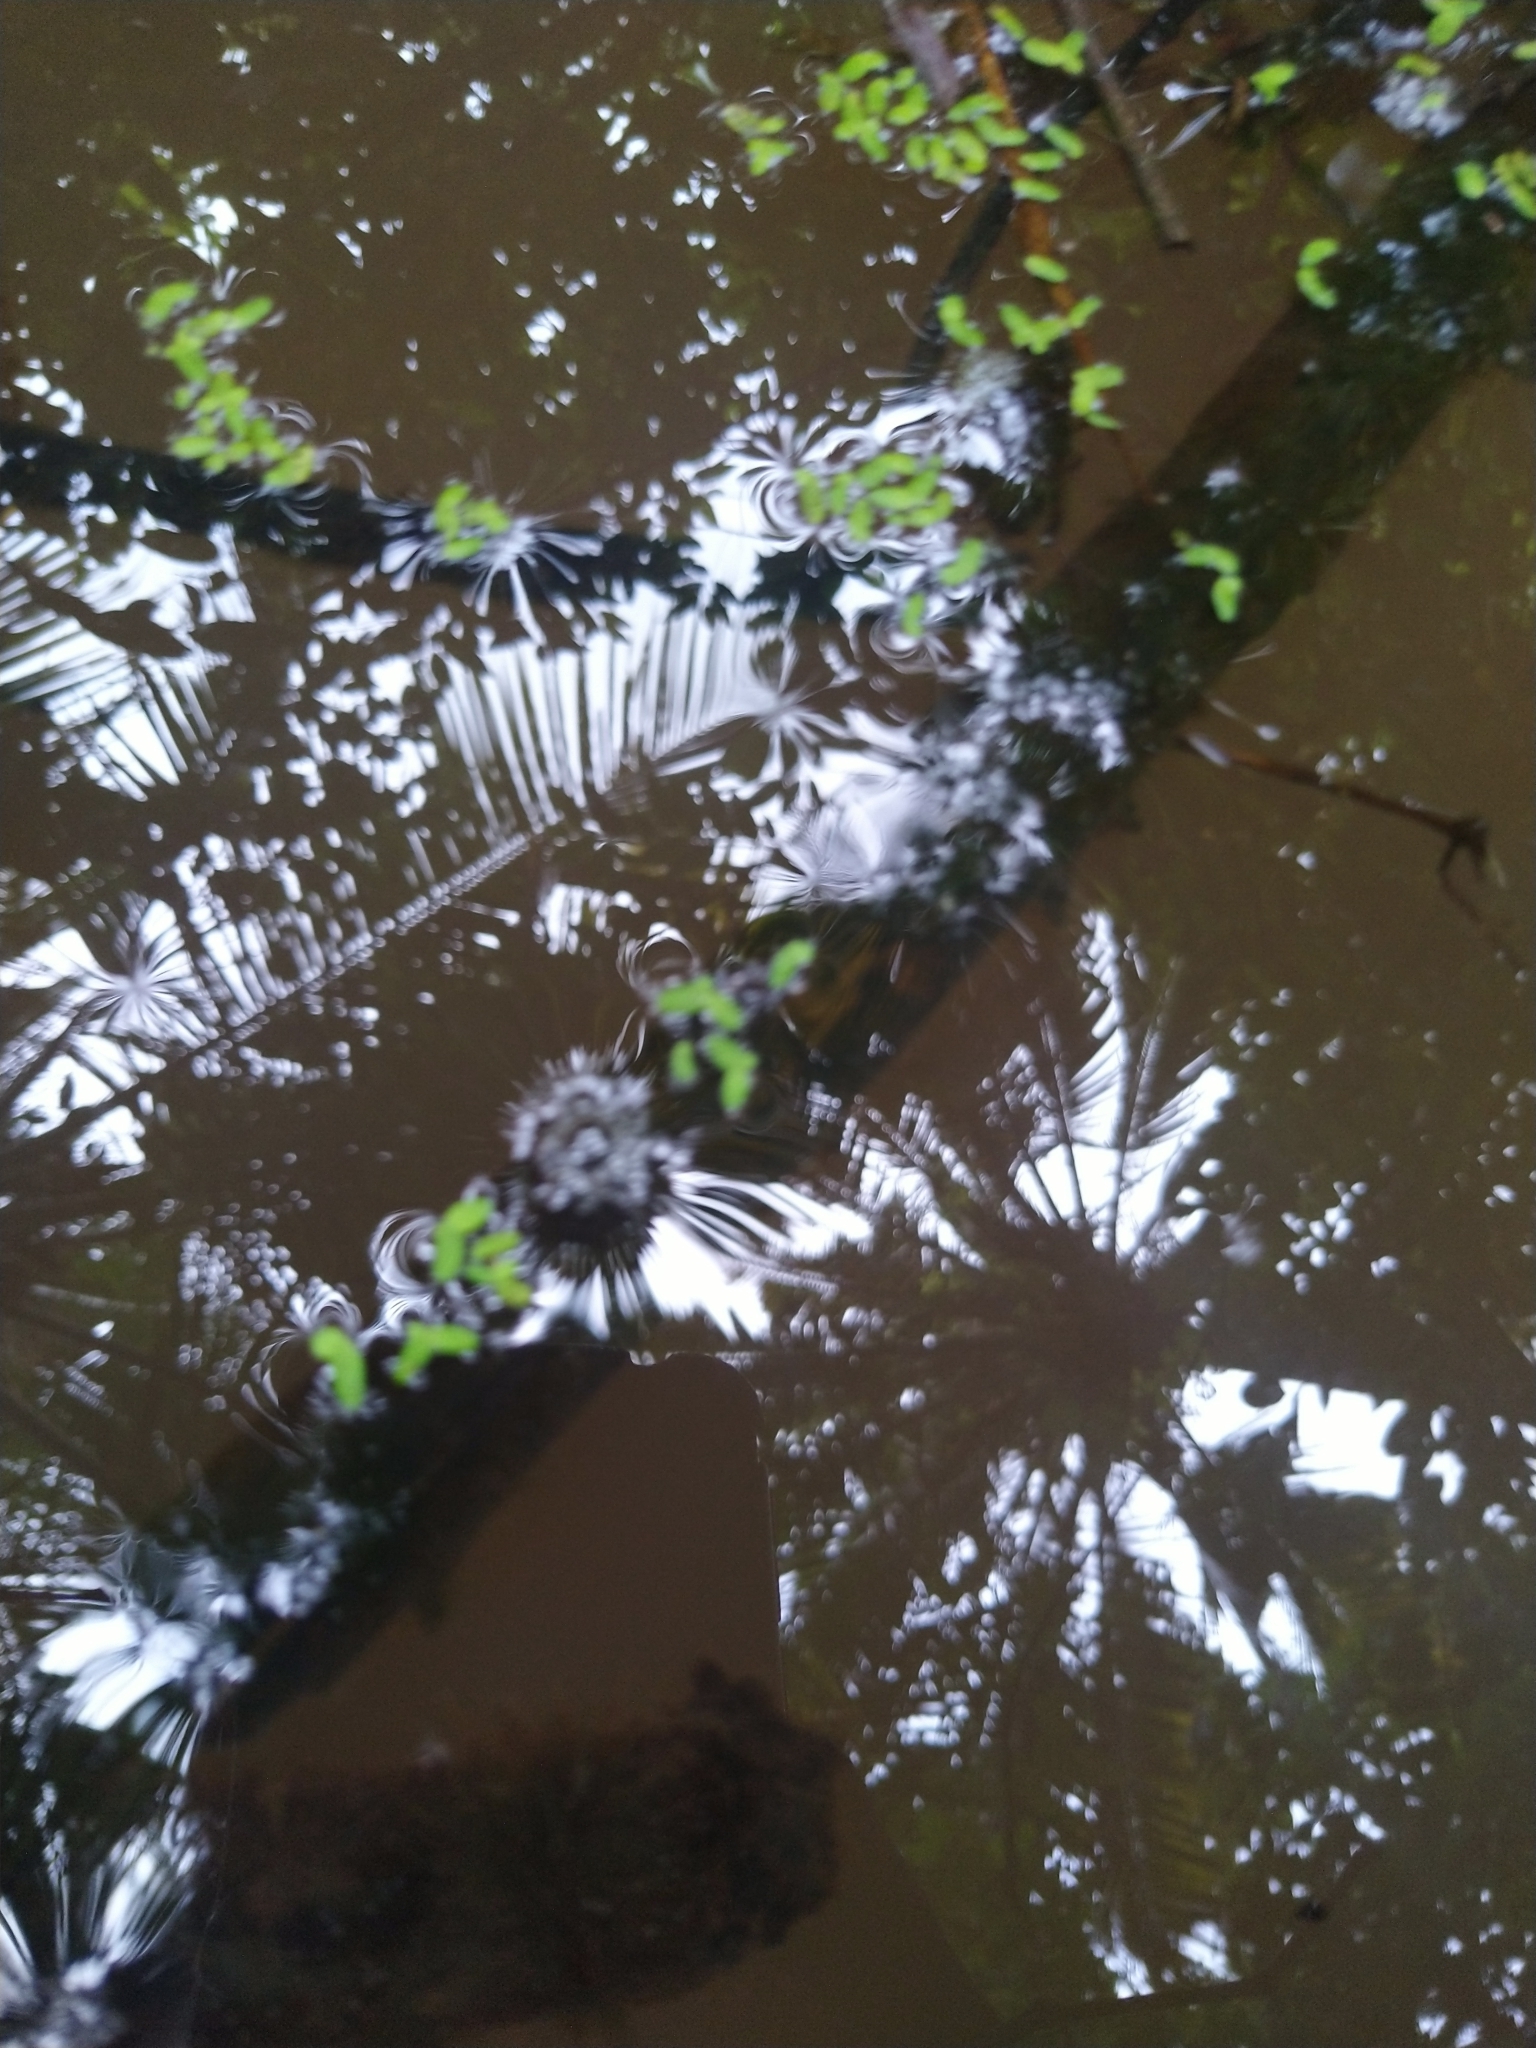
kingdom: Plantae
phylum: Tracheophyta
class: Liliopsida
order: Alismatales
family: Araceae
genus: Lemna
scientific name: Lemna minor
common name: Common duckweed
